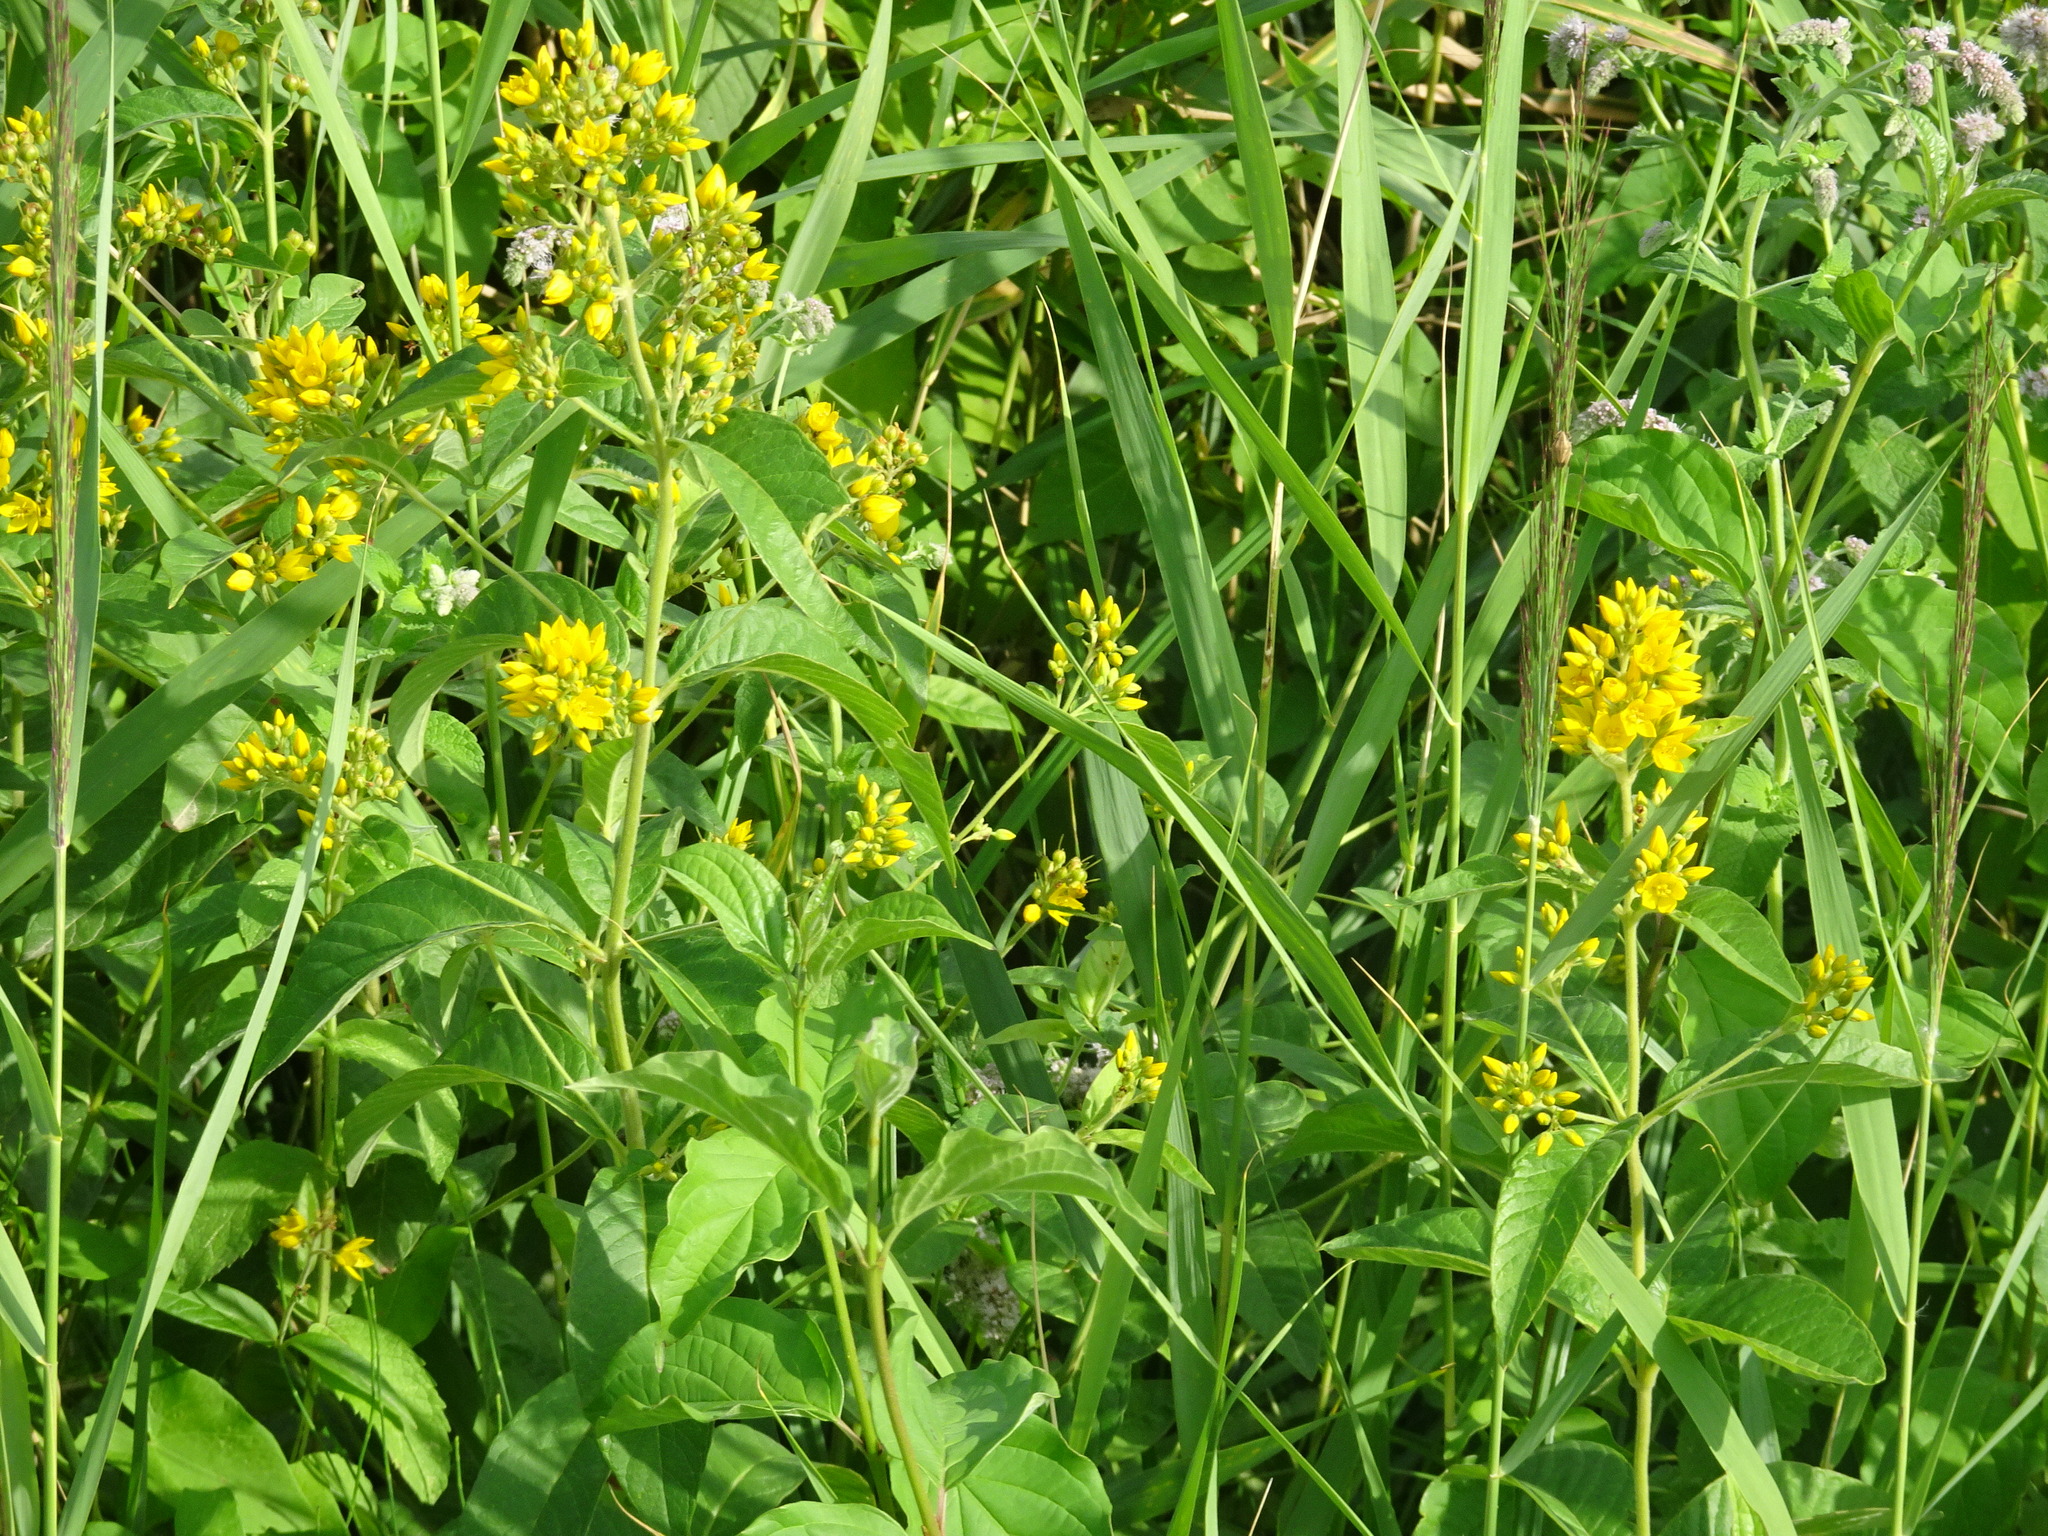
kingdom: Plantae
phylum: Tracheophyta
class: Magnoliopsida
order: Ericales
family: Primulaceae
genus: Lysimachia
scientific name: Lysimachia vulgaris
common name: Yellow loosestrife
